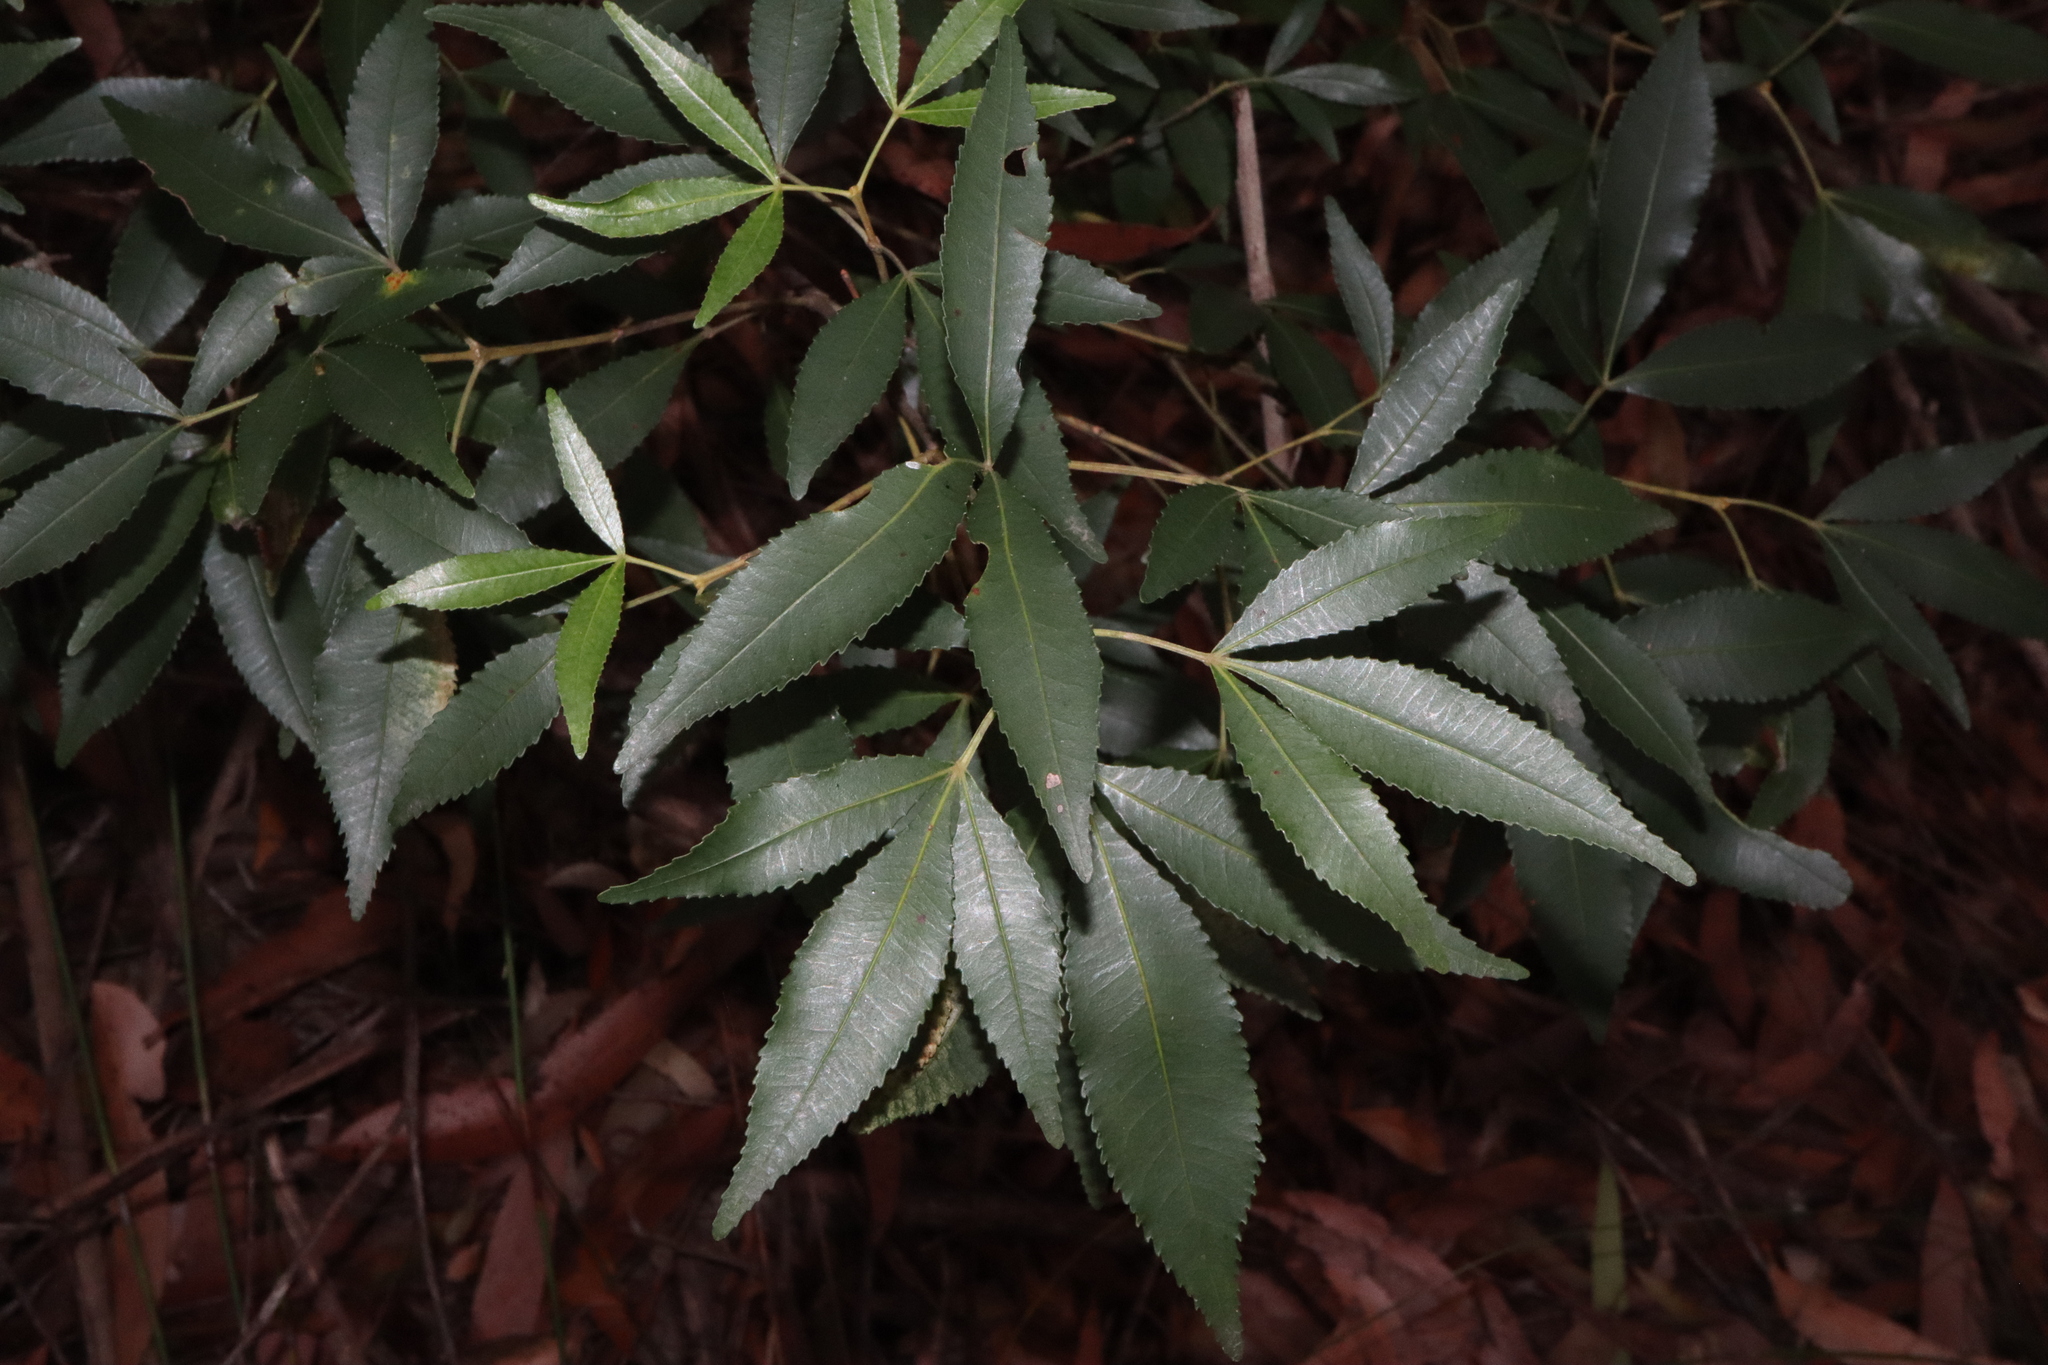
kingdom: Plantae
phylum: Tracheophyta
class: Magnoliopsida
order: Oxalidales
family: Cunoniaceae
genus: Ceratopetalum
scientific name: Ceratopetalum gummiferum
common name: Christmasbush
